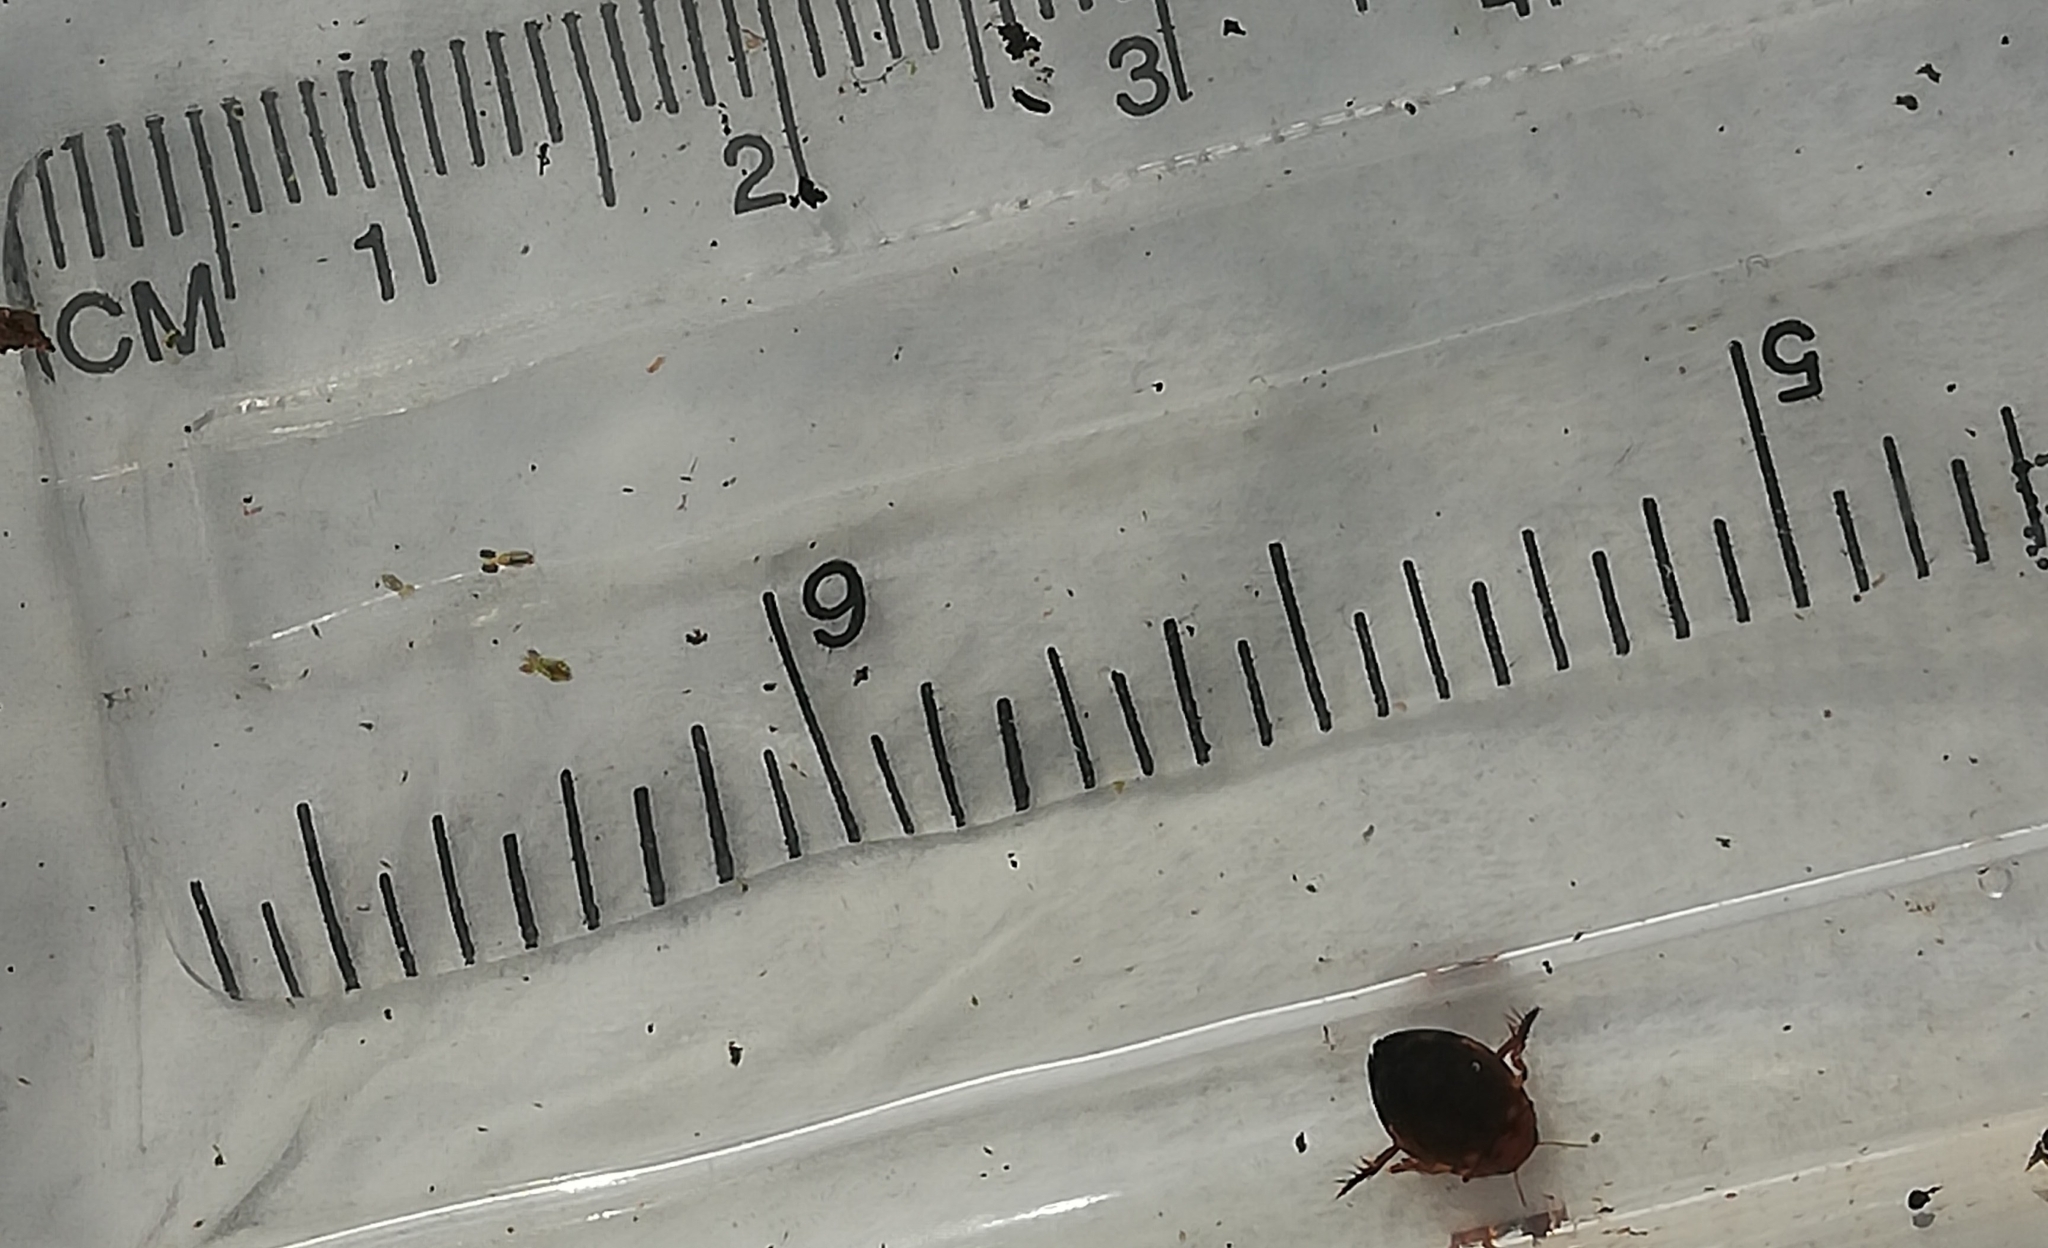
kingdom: Animalia
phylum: Arthropoda
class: Insecta
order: Coleoptera
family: Dytiscidae
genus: Hyphydrus
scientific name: Hyphydrus ovatus
